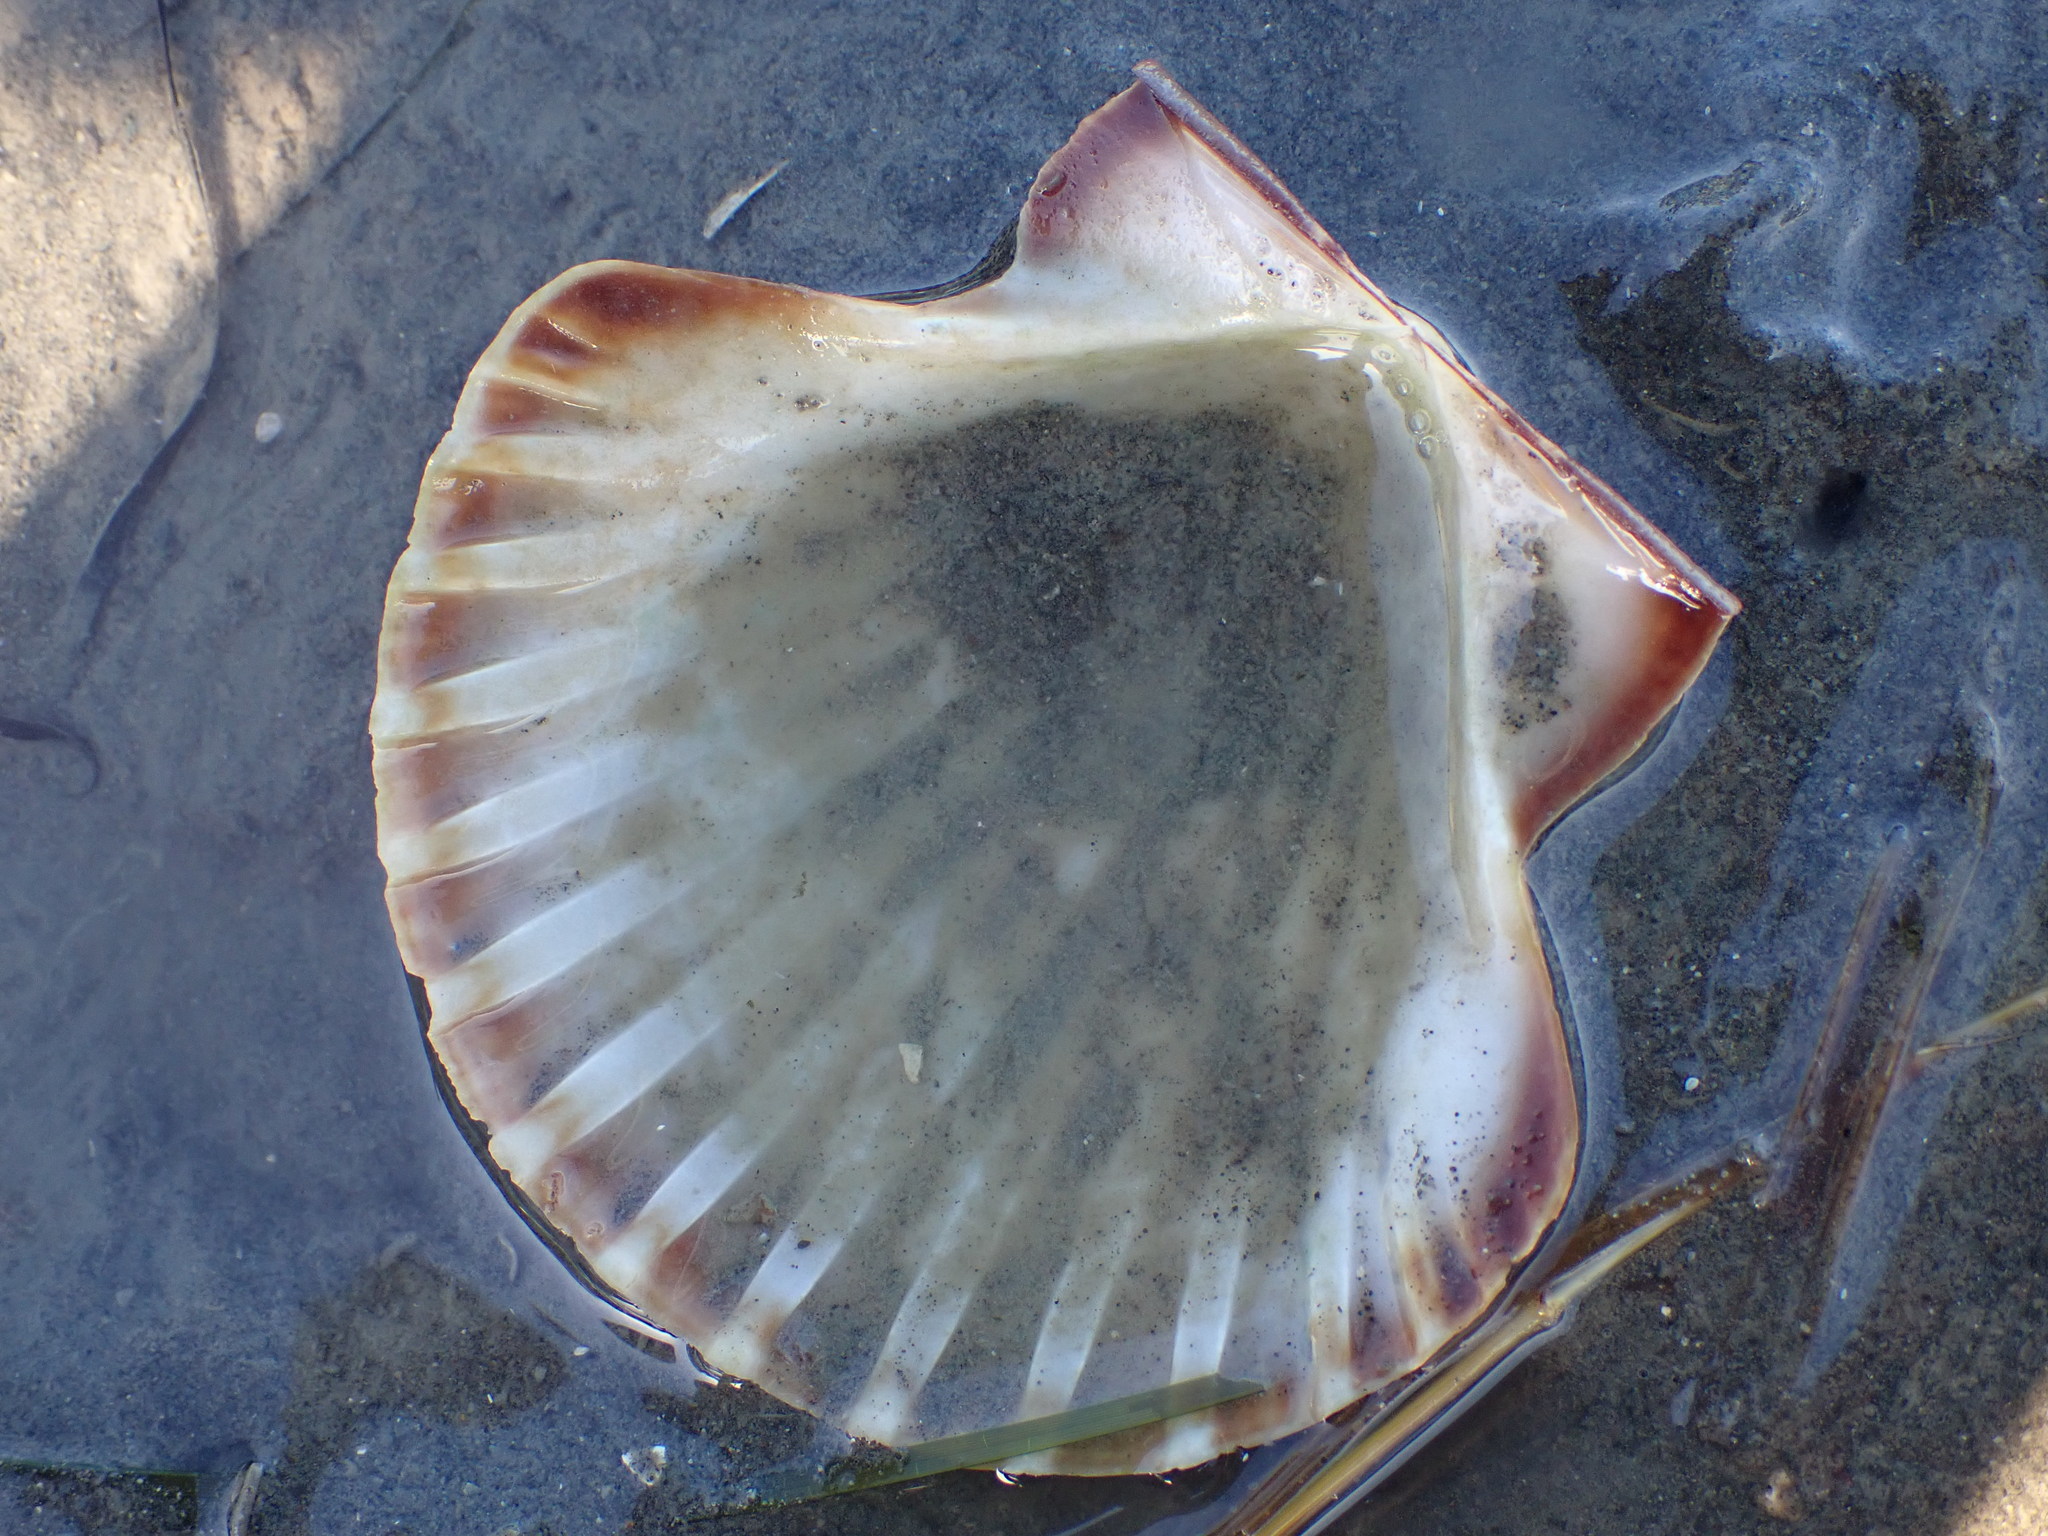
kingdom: Animalia
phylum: Mollusca
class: Bivalvia
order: Pectinida
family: Pectinidae
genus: Pecten
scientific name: Pecten novaezelandiae
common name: New zealand scallop
